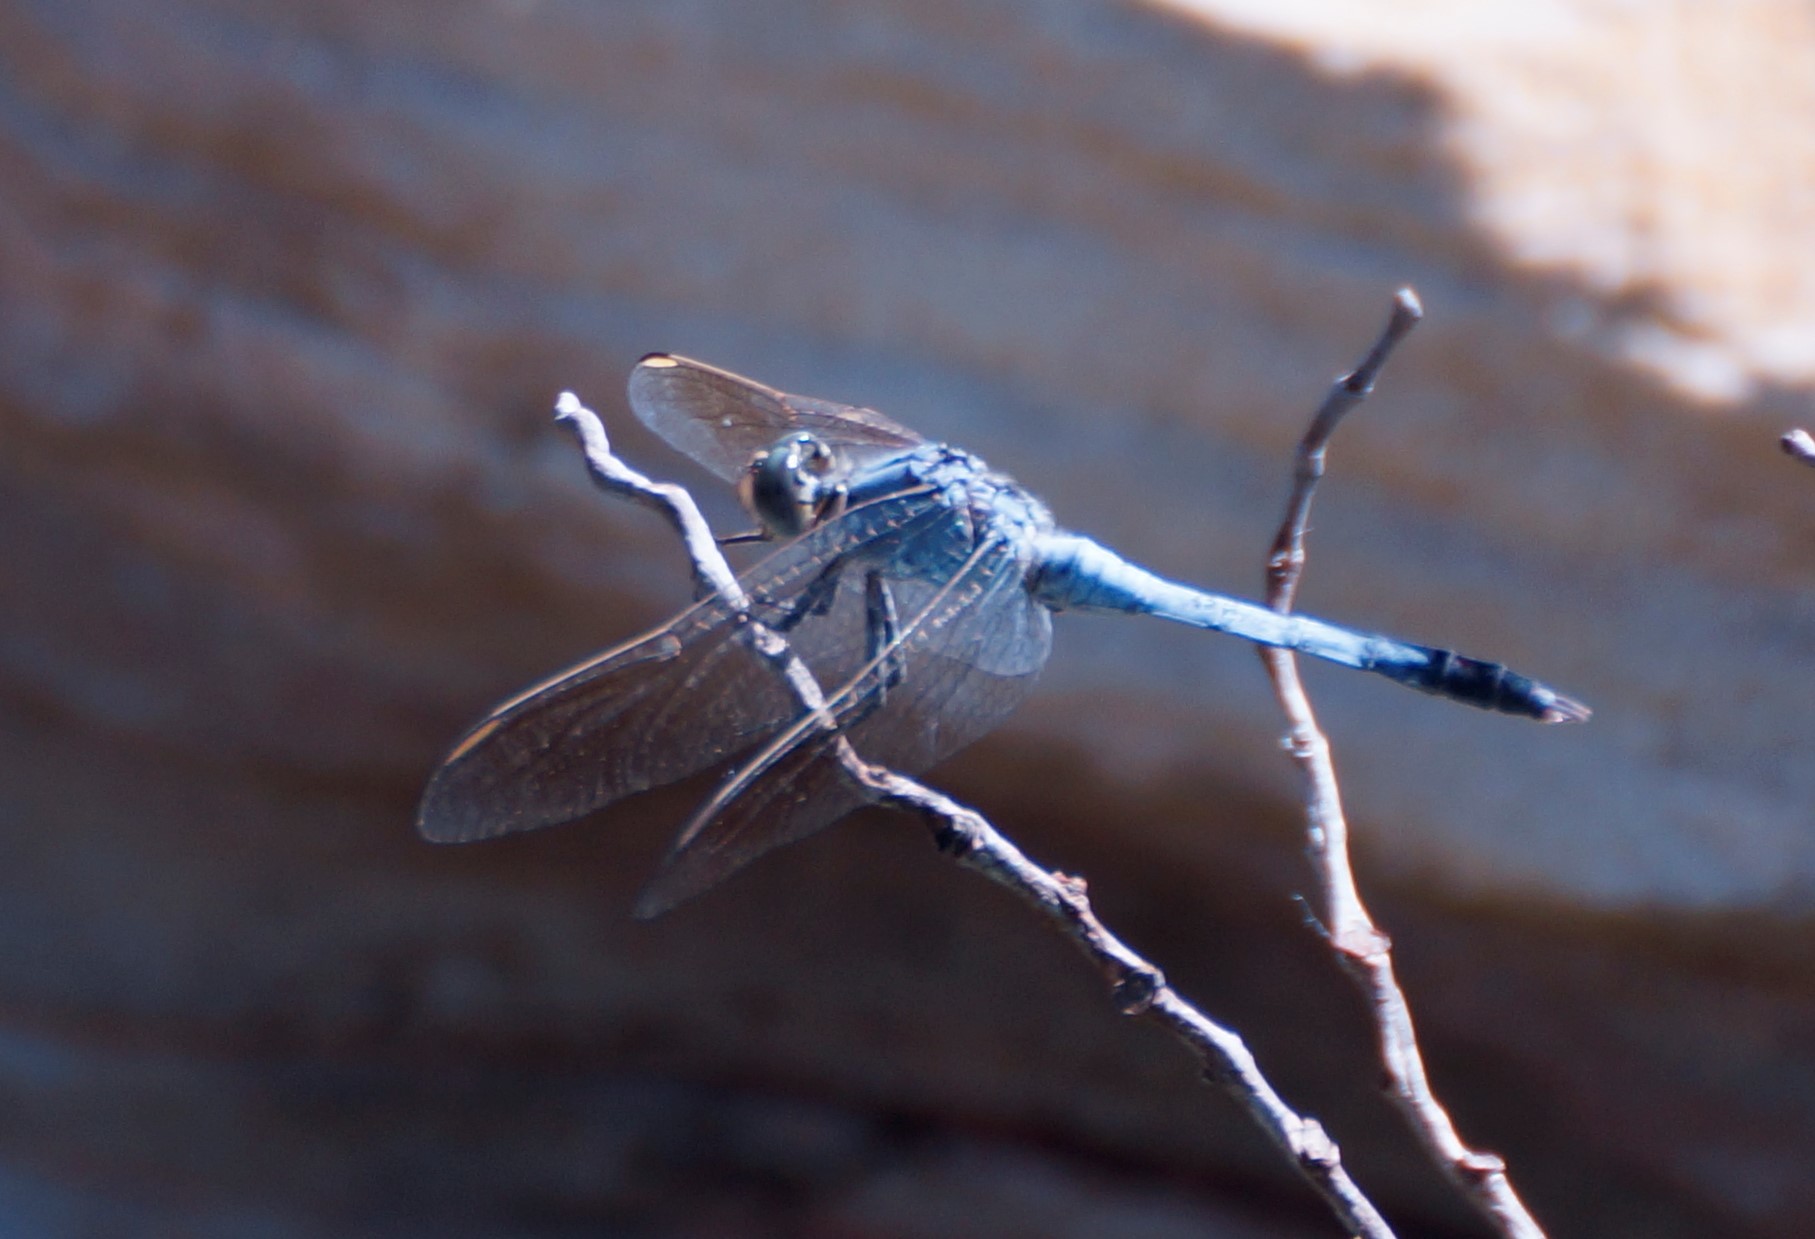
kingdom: Animalia
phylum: Arthropoda
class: Insecta
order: Odonata
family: Libellulidae
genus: Orthetrum
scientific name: Orthetrum caledonicum
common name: Blue skimmer
